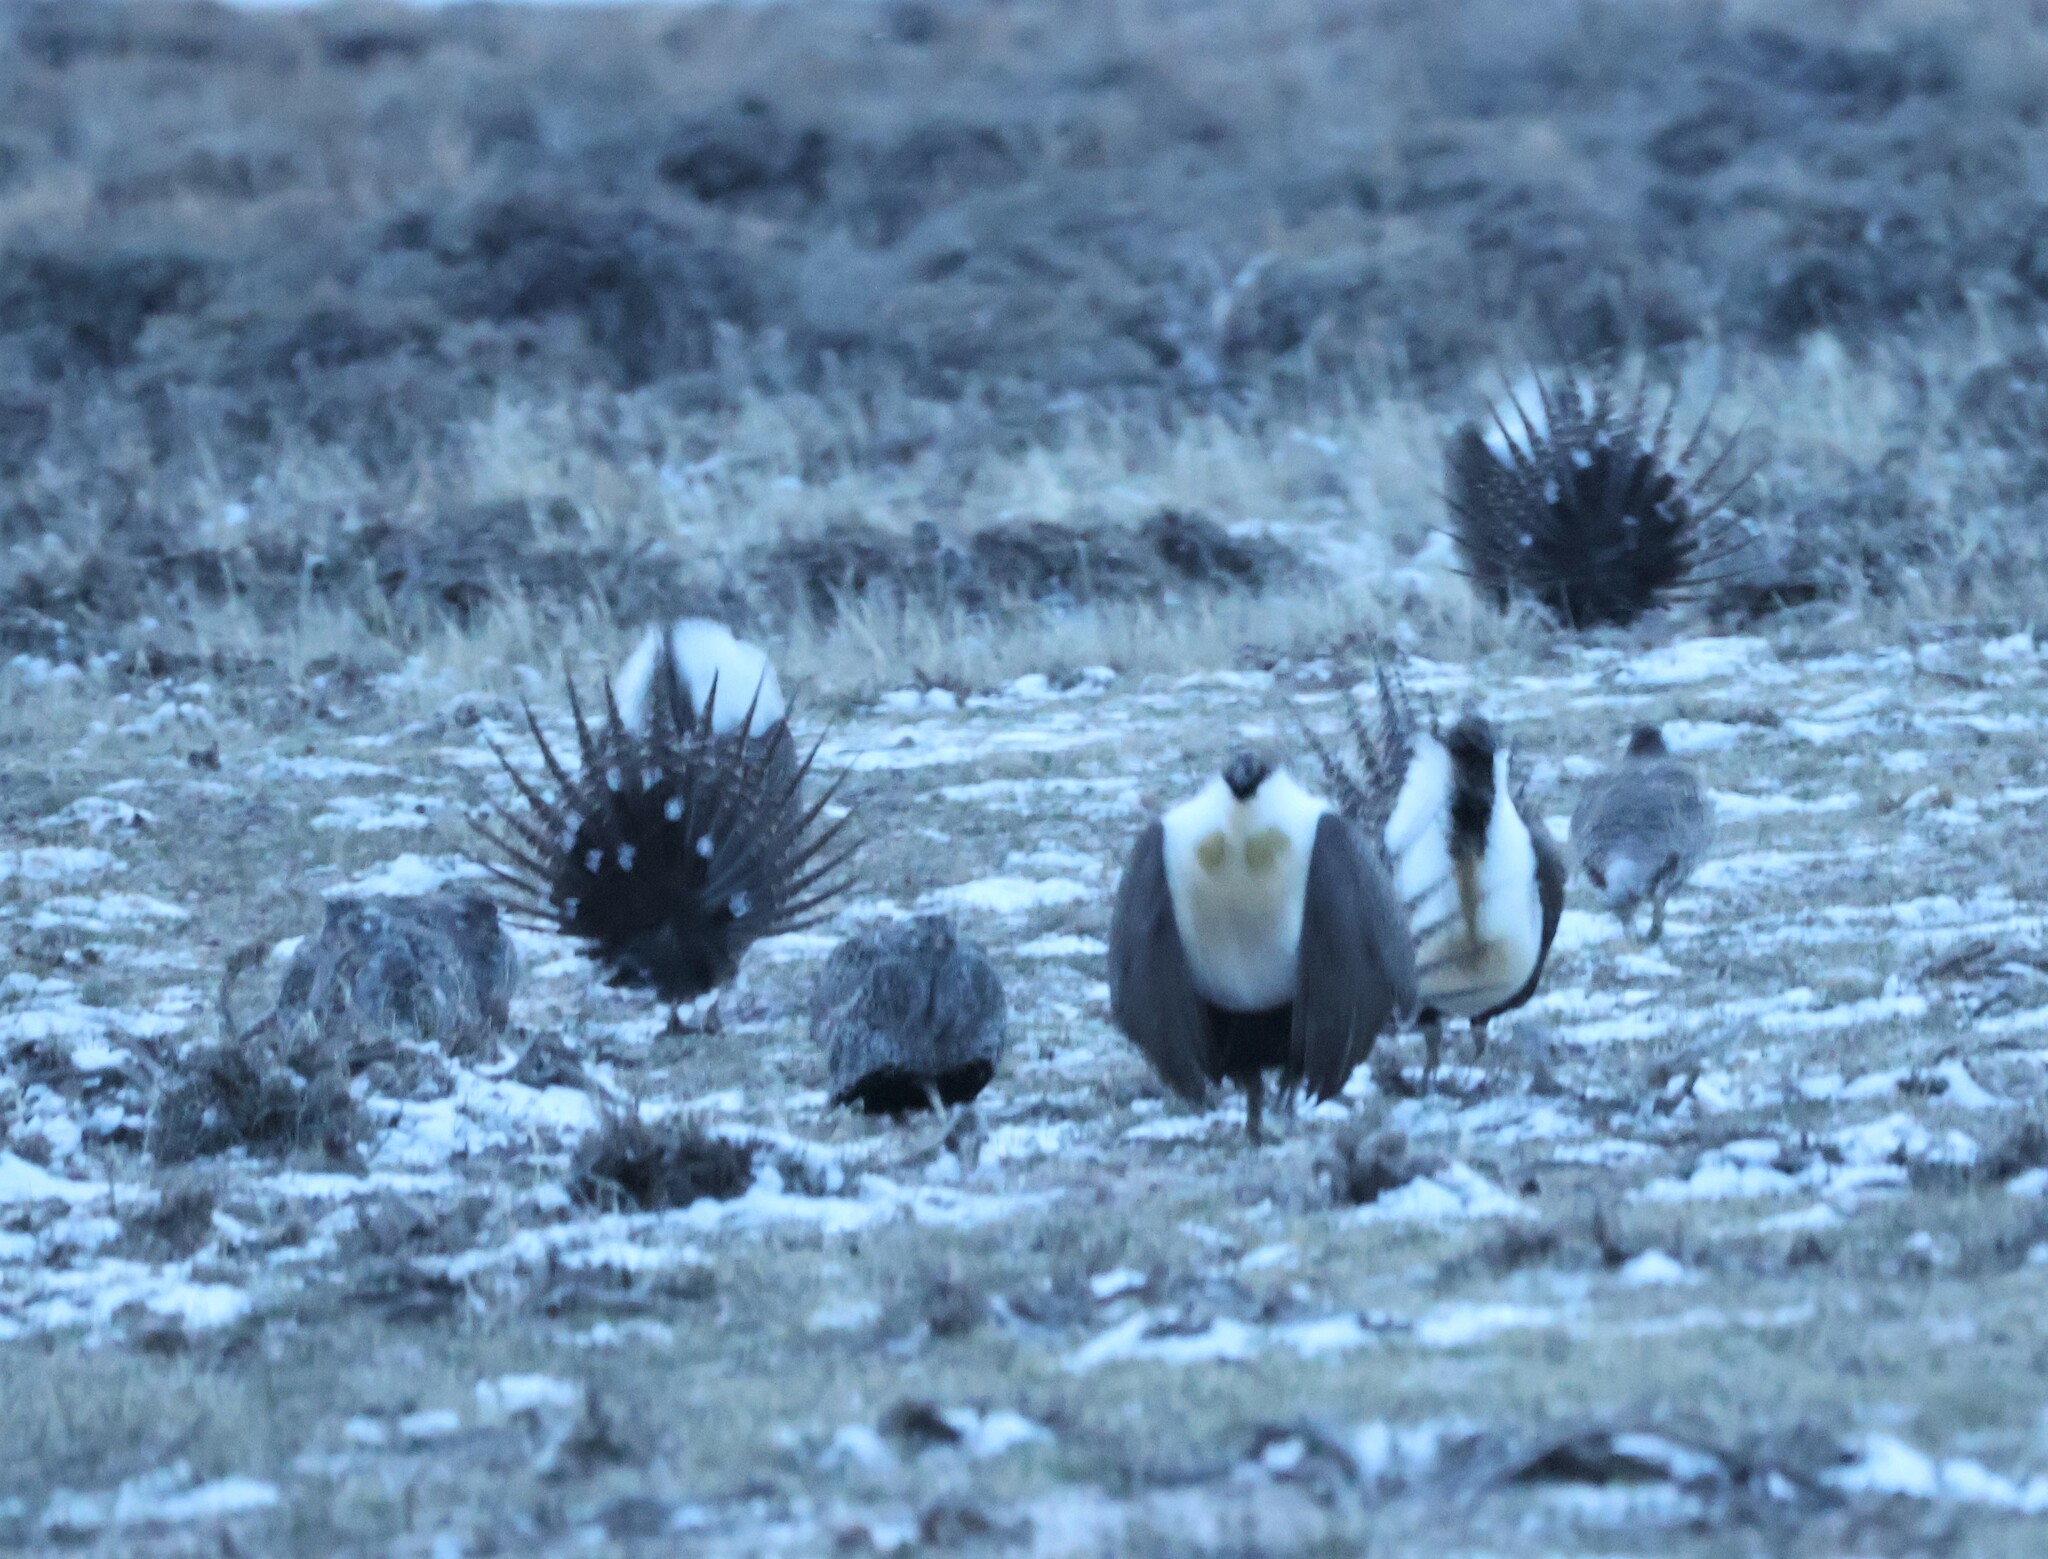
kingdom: Animalia
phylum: Chordata
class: Aves
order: Galliformes
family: Phasianidae
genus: Centrocercus
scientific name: Centrocercus urophasianus
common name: Sage grouse
